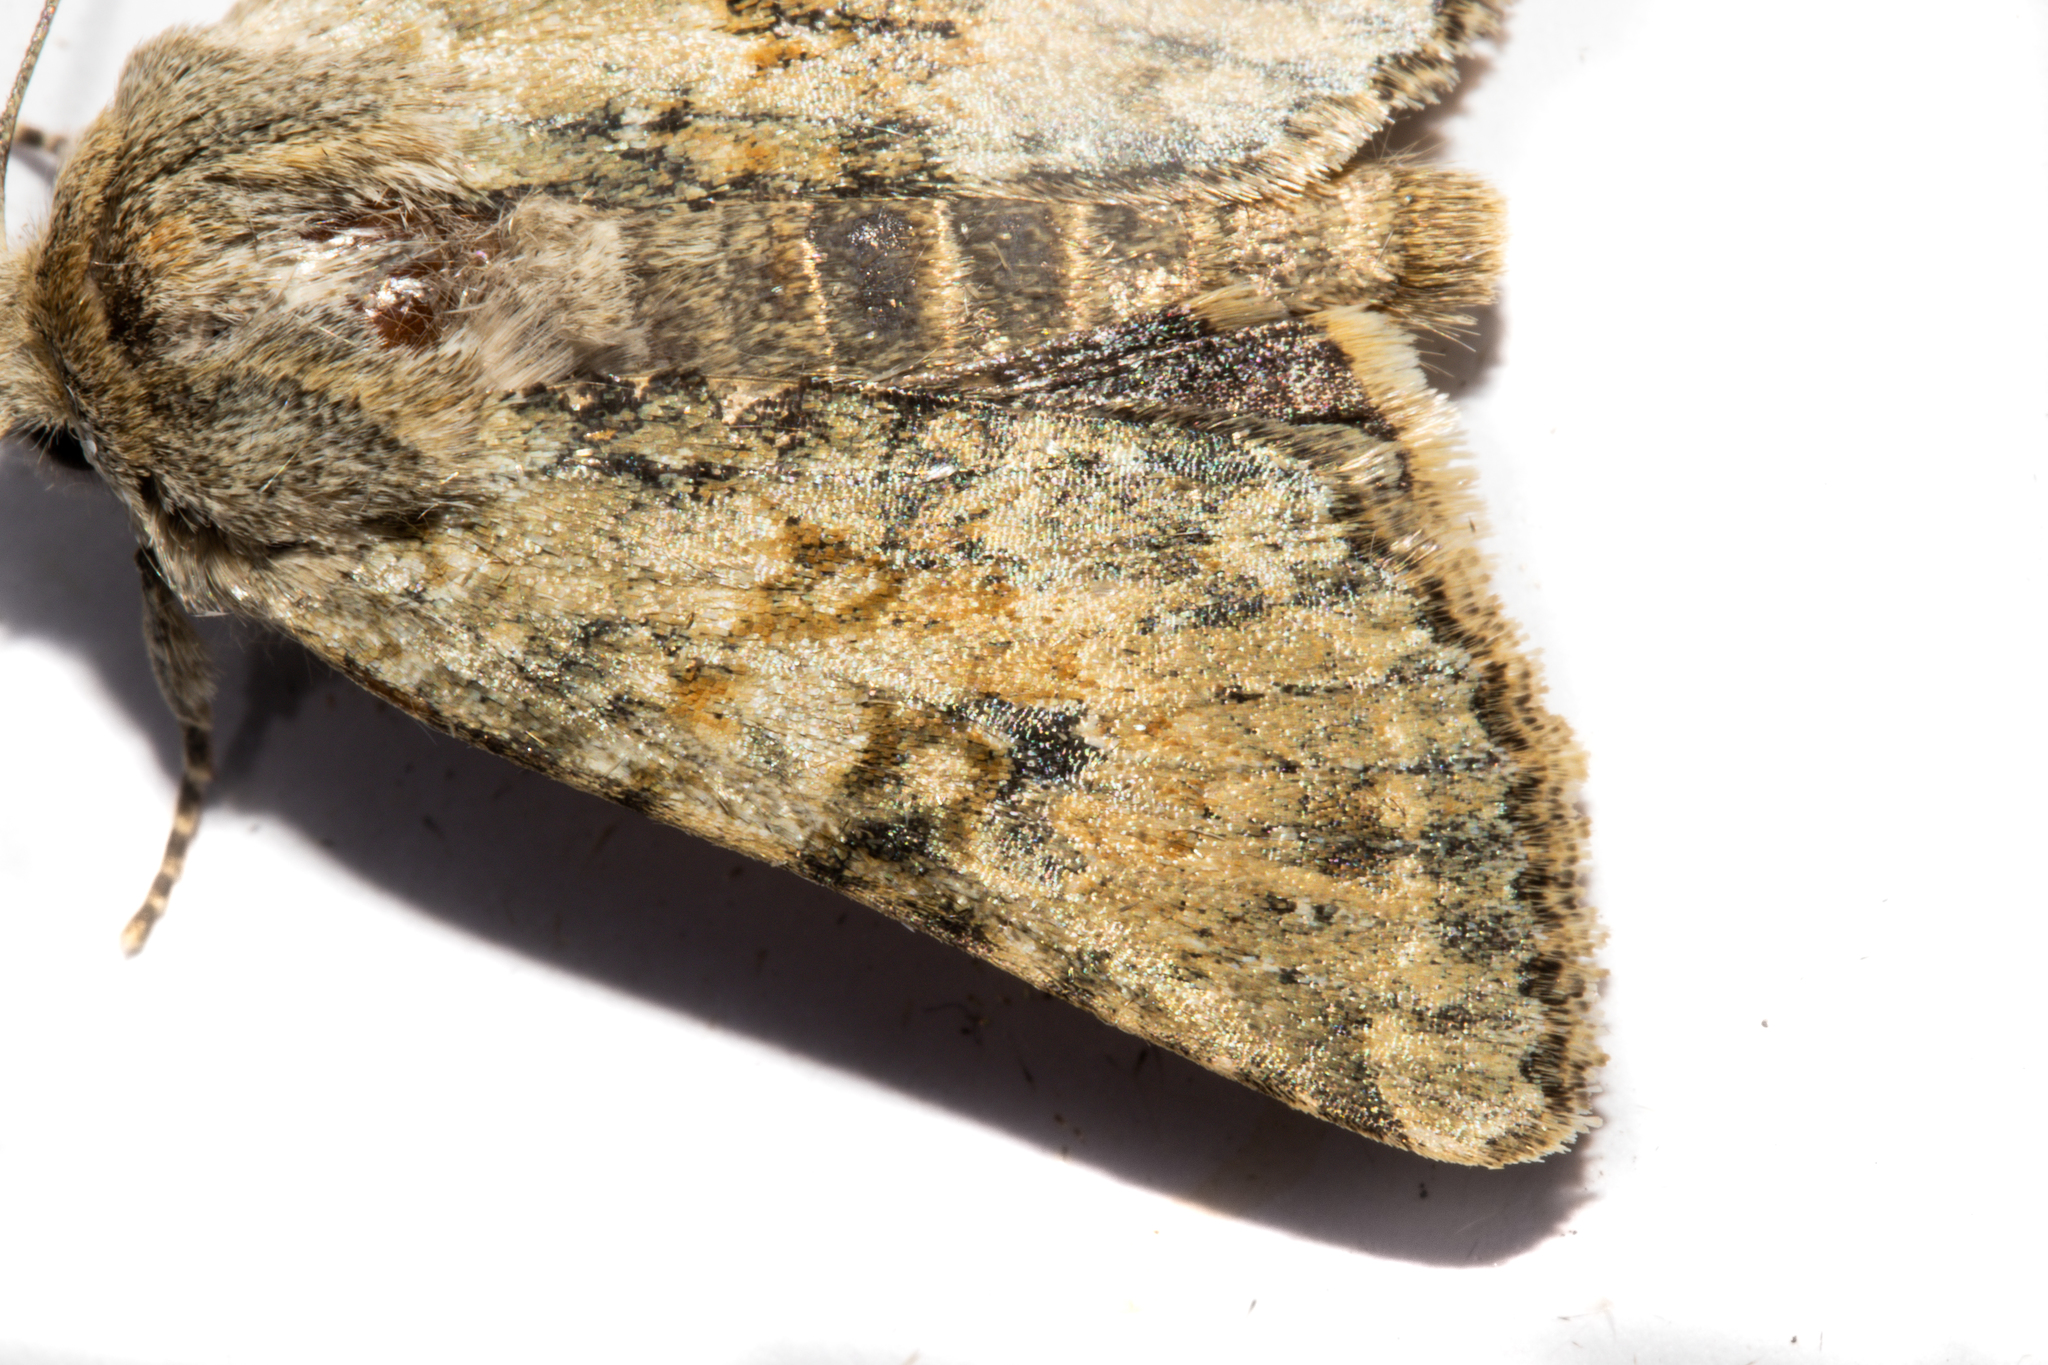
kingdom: Animalia
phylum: Arthropoda
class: Insecta
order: Lepidoptera
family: Noctuidae
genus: Ichneutica
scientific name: Ichneutica cuneata
